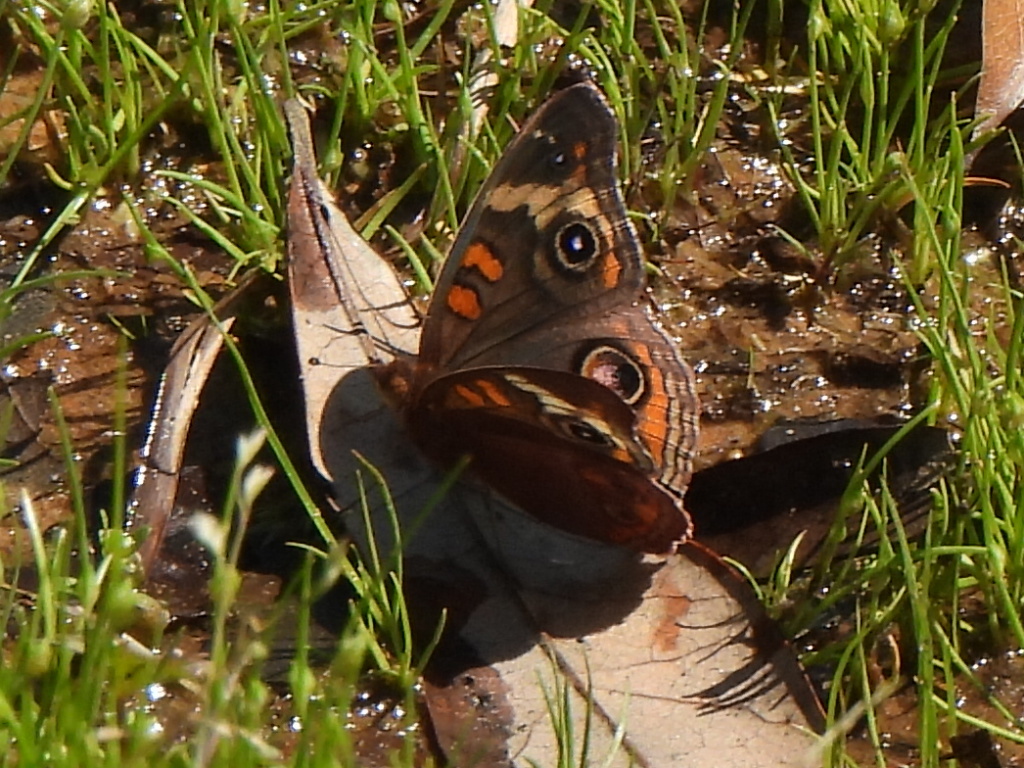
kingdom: Animalia
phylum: Arthropoda
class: Insecta
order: Lepidoptera
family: Nymphalidae
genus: Junonia
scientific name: Junonia coenia
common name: Common buckeye
